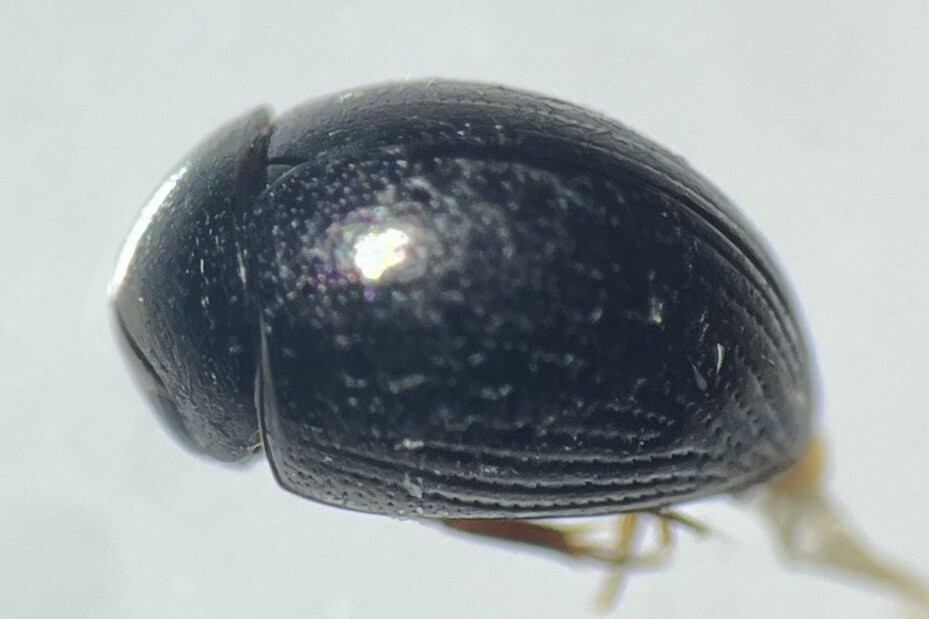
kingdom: Animalia
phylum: Arthropoda
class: Insecta
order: Coleoptera
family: Hydrophilidae
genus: Derallus
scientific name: Derallus altus
